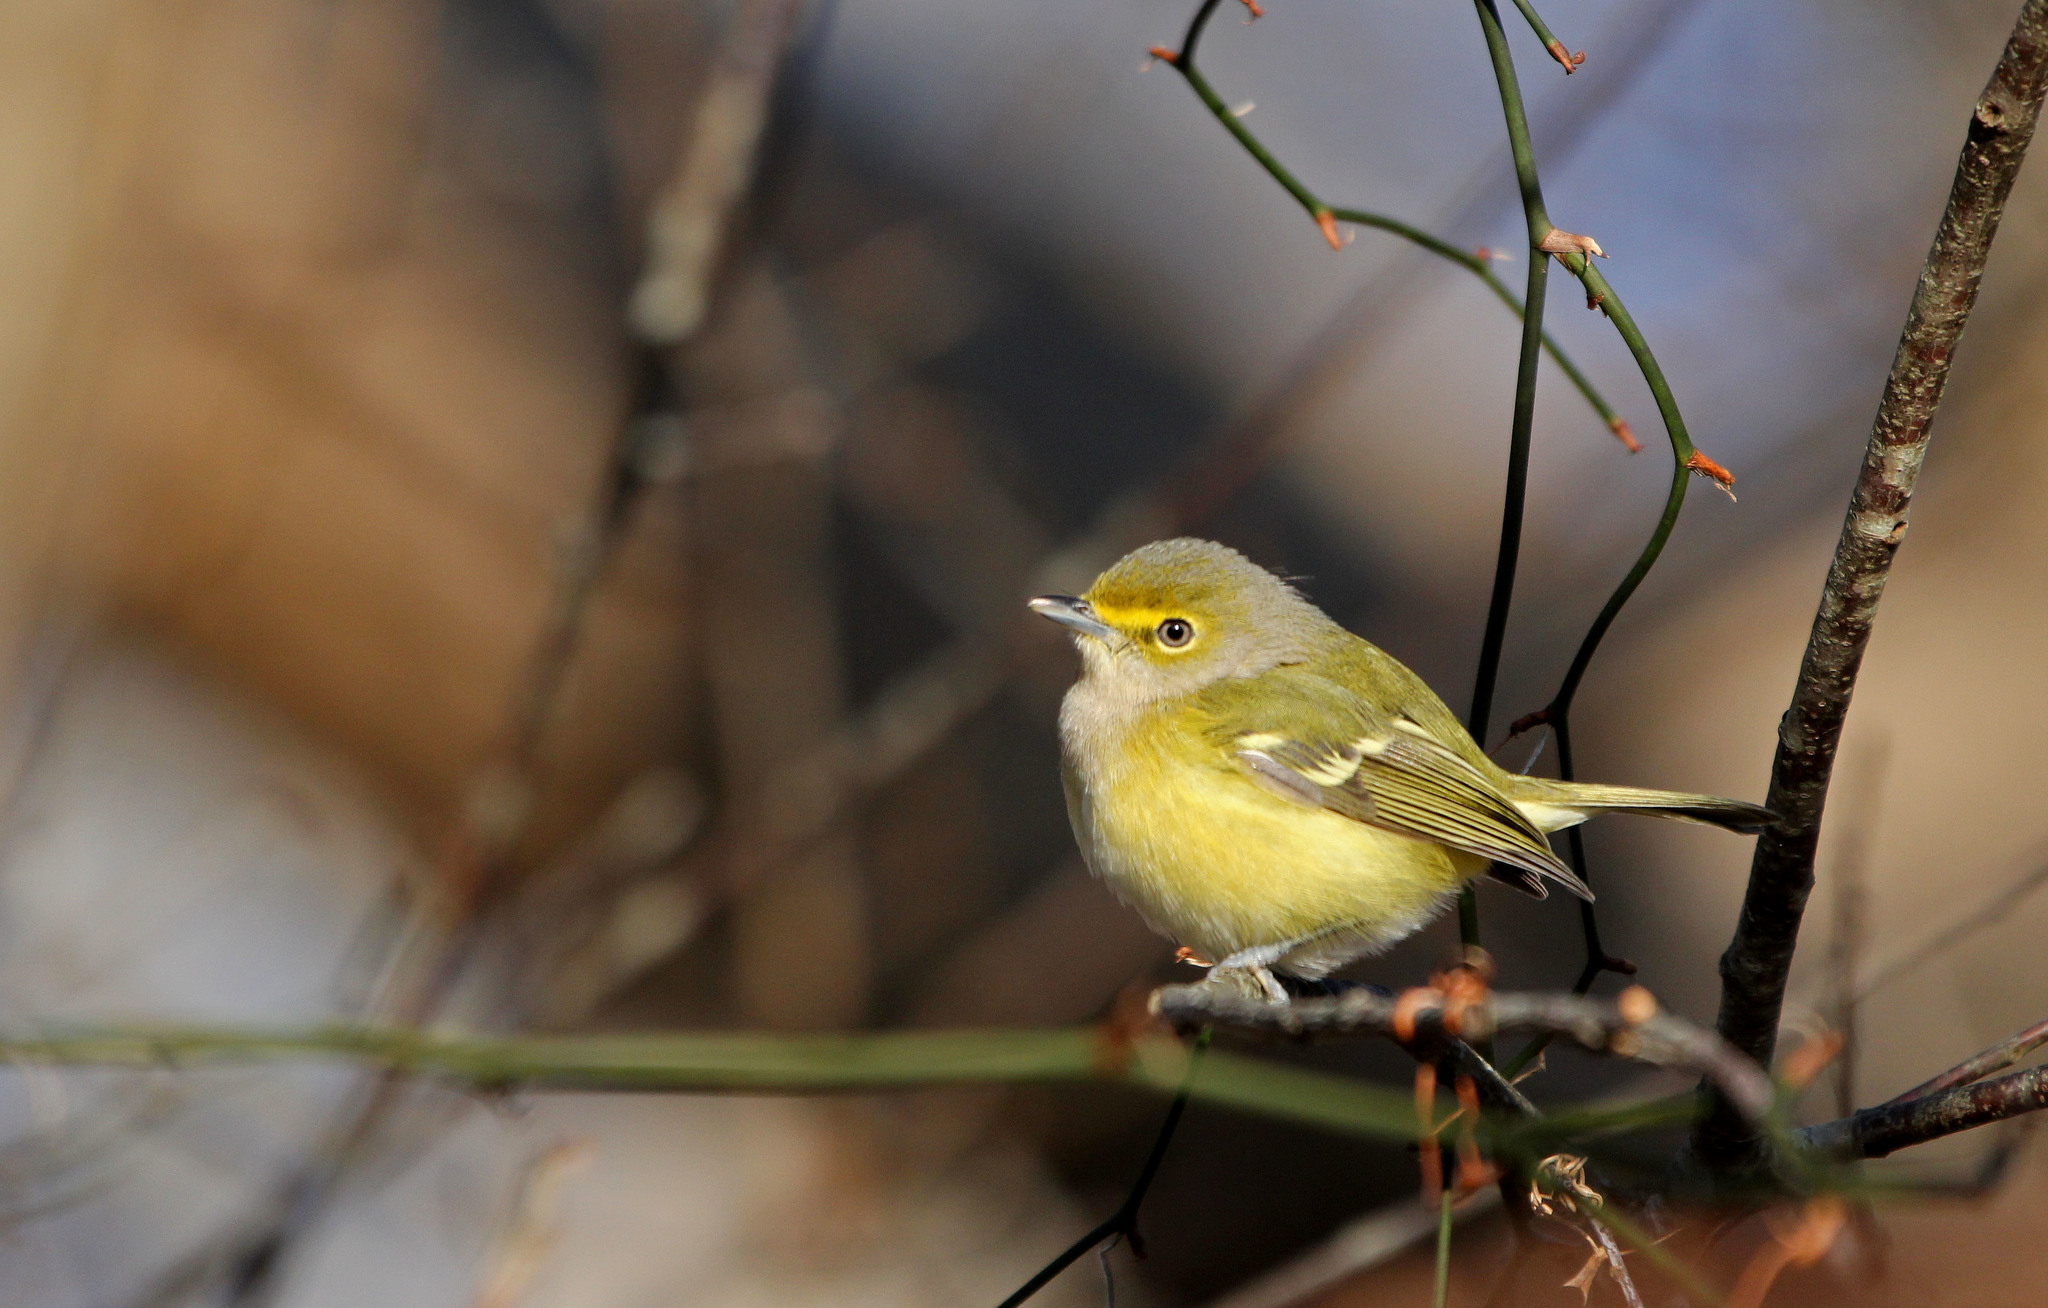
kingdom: Animalia
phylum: Chordata
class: Aves
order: Passeriformes
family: Vireonidae
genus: Vireo
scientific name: Vireo griseus
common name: White-eyed vireo
